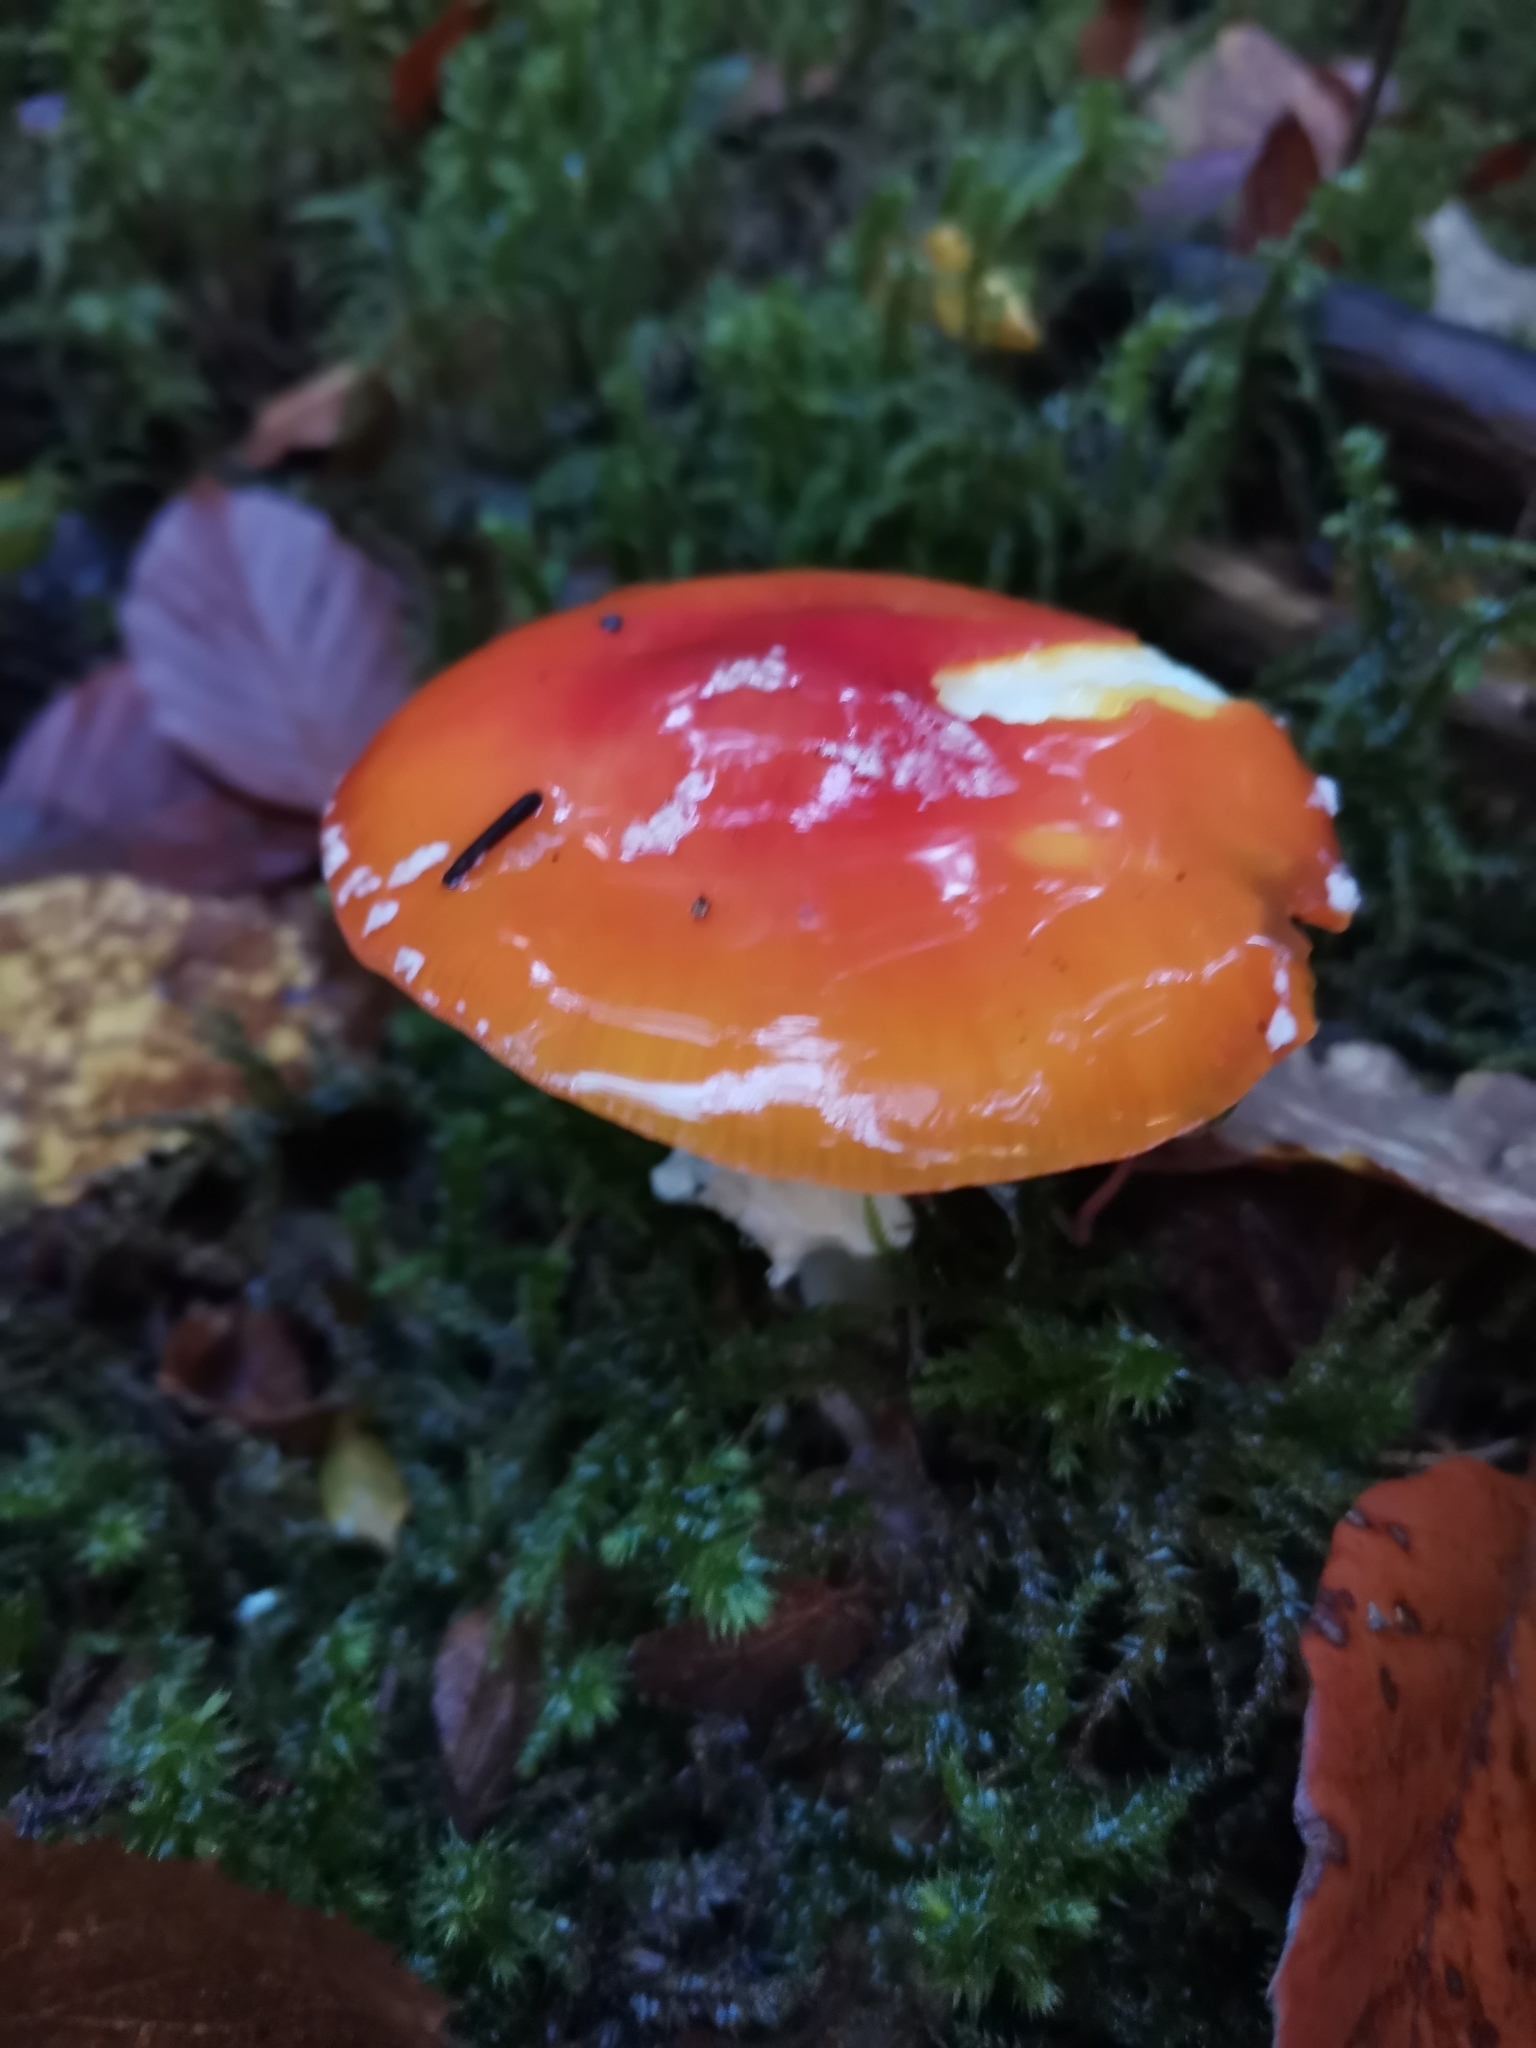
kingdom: Fungi
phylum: Basidiomycota
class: Agaricomycetes
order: Agaricales
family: Amanitaceae
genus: Amanita
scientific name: Amanita muscaria
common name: Fly agaric
